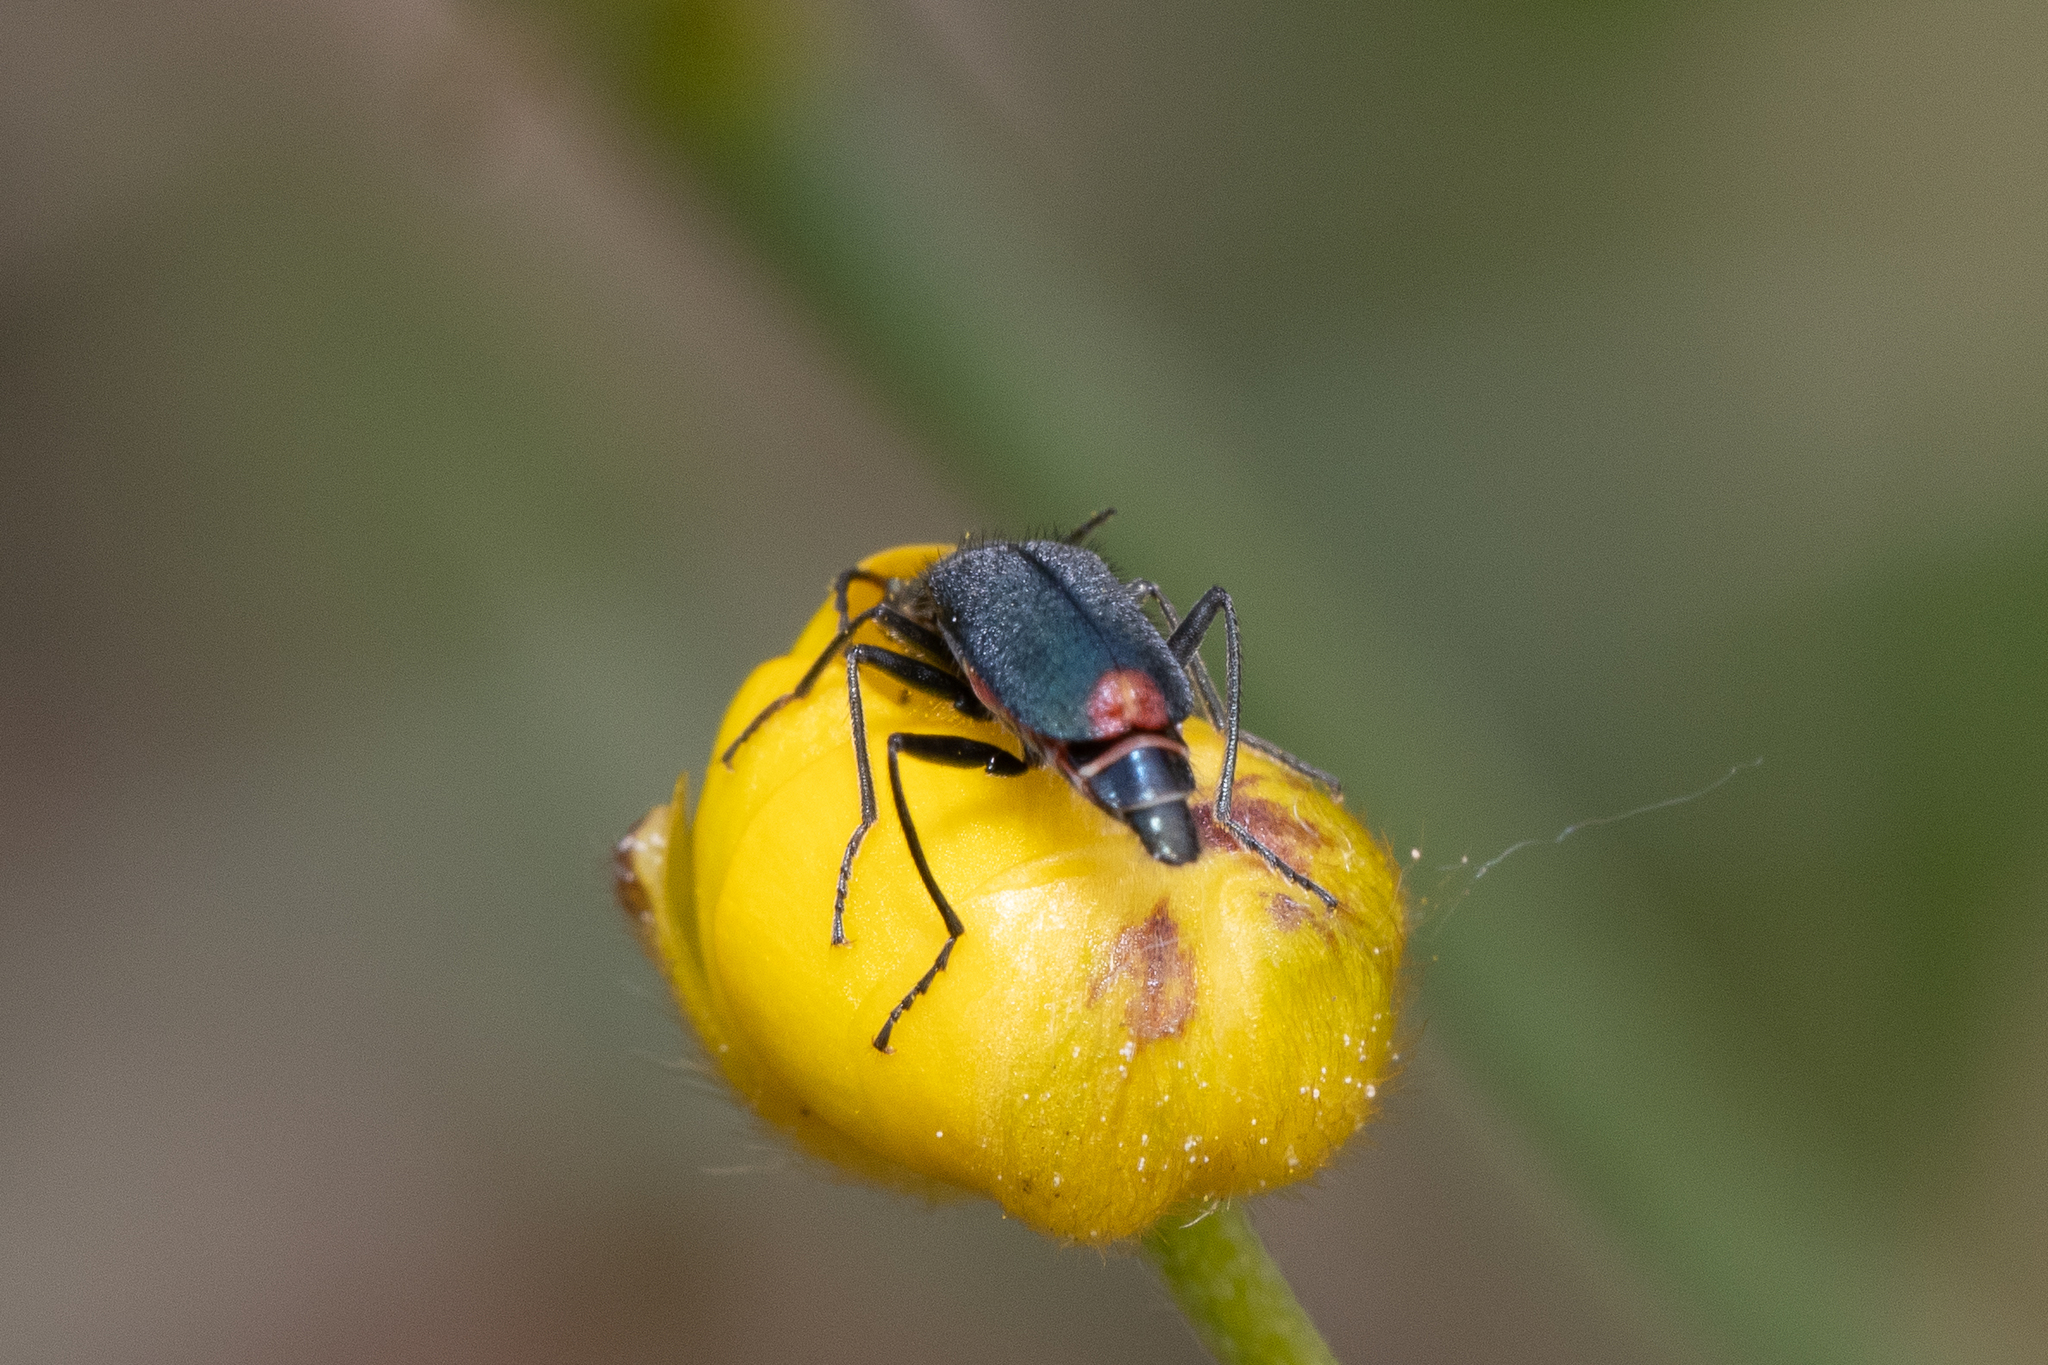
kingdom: Animalia
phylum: Arthropoda
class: Insecta
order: Coleoptera
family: Malachiidae
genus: Cordylepherus
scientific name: Cordylepherus viridis
